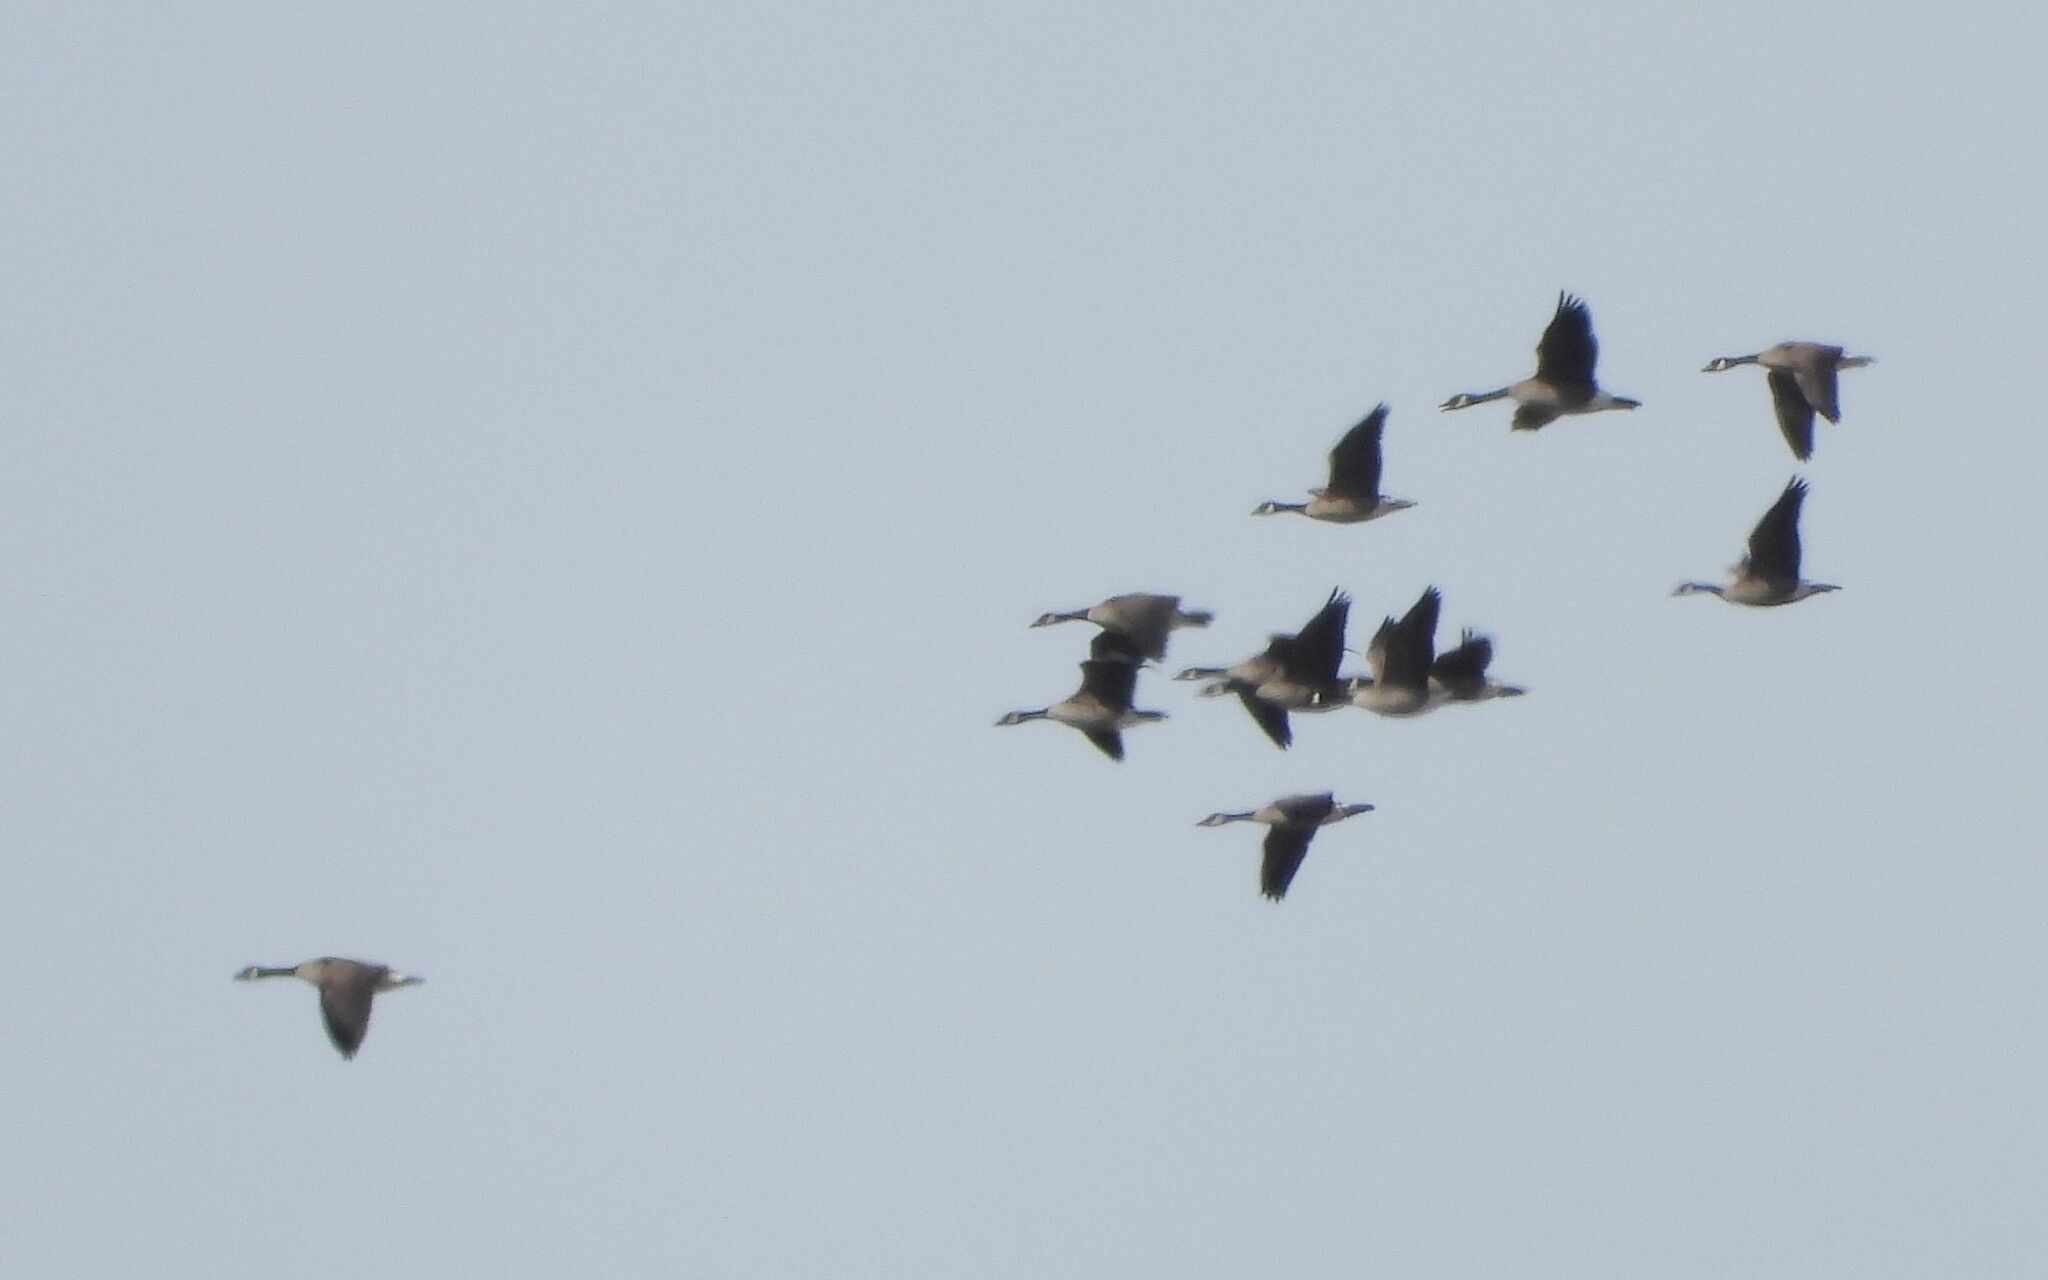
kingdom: Animalia
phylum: Chordata
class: Aves
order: Anseriformes
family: Anatidae
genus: Branta
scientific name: Branta canadensis
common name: Canada goose
